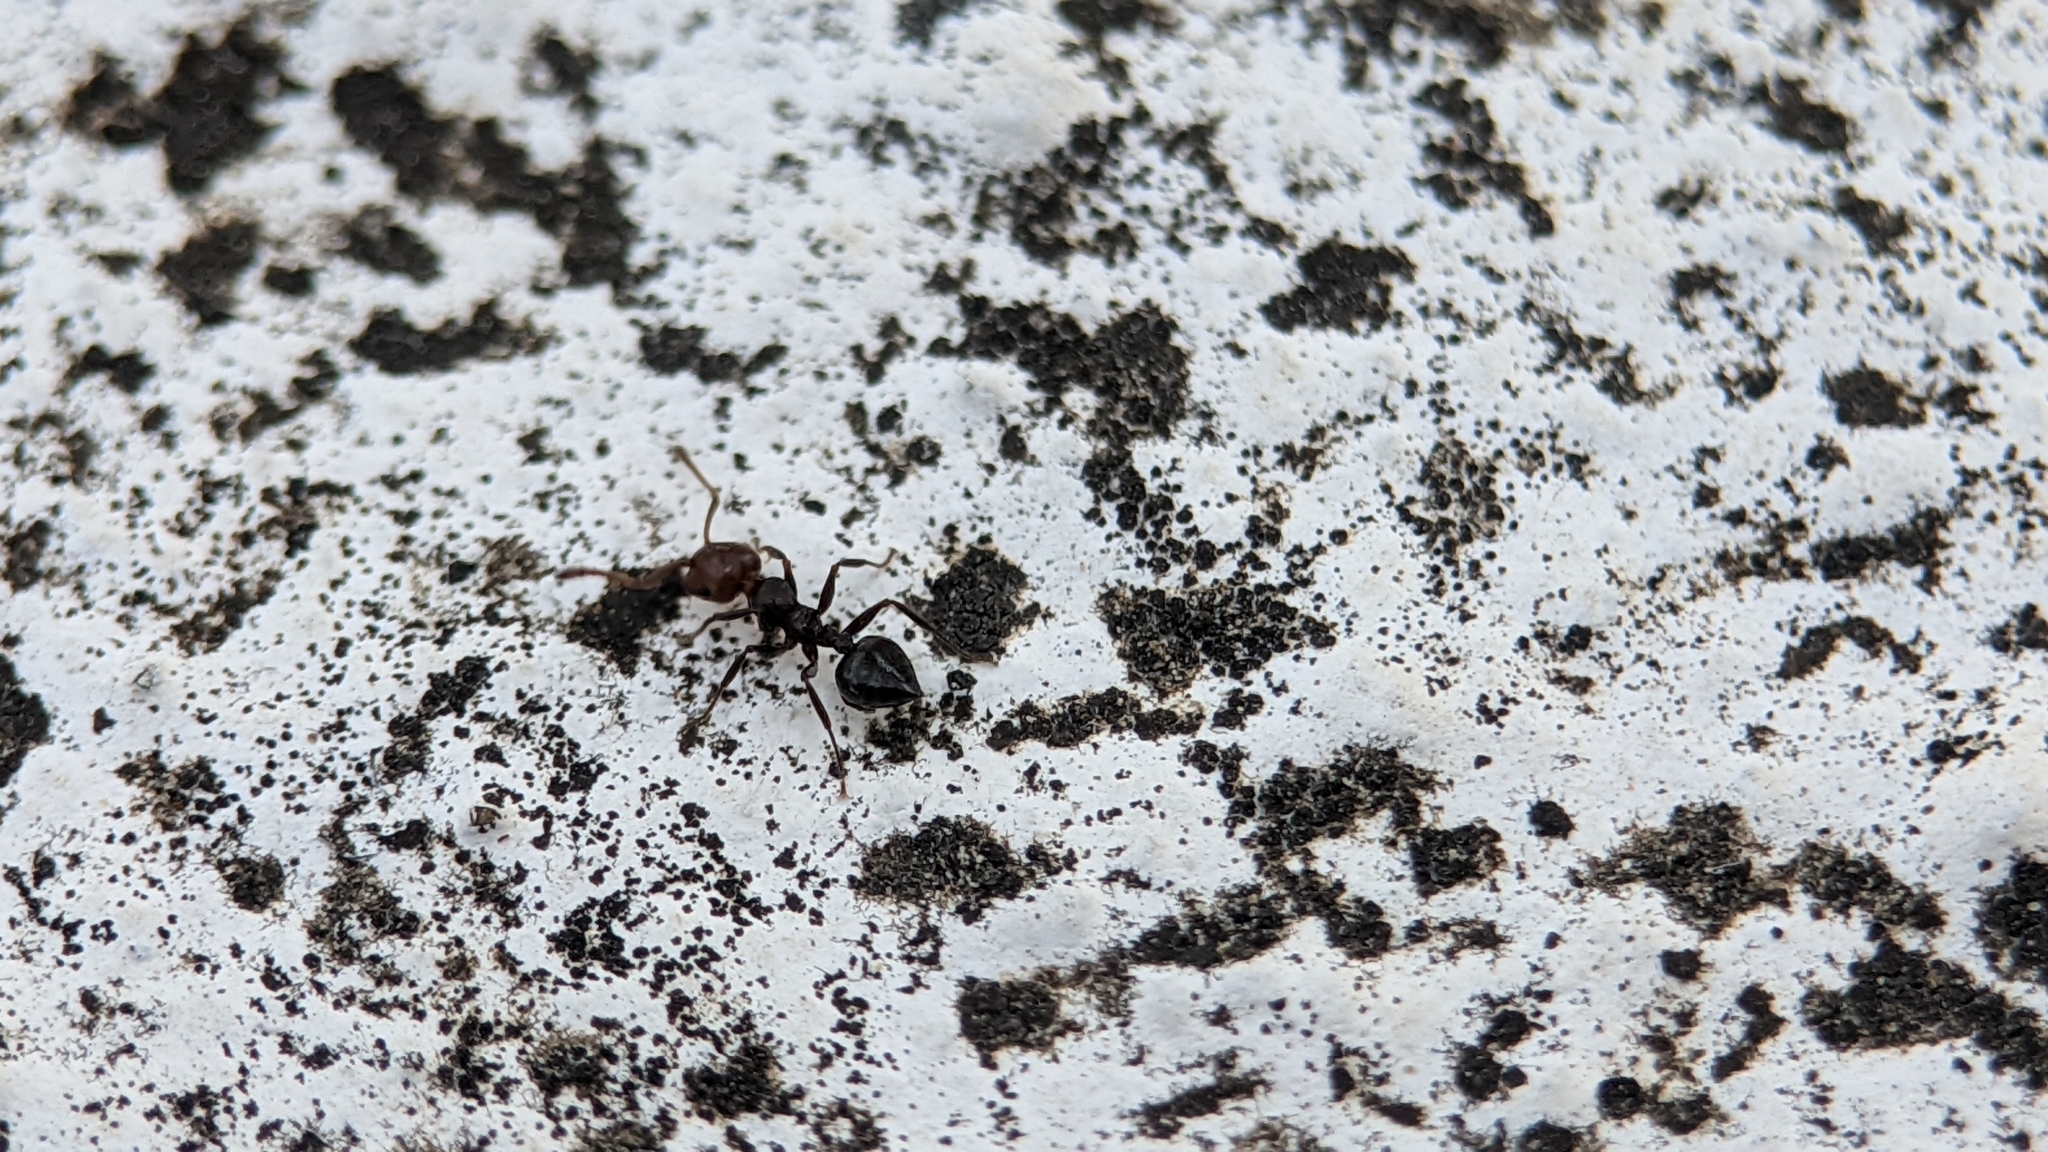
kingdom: Animalia
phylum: Arthropoda
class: Insecta
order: Hymenoptera
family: Formicidae
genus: Crematogaster
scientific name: Crematogaster scutellaris
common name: Fourmi du liège
